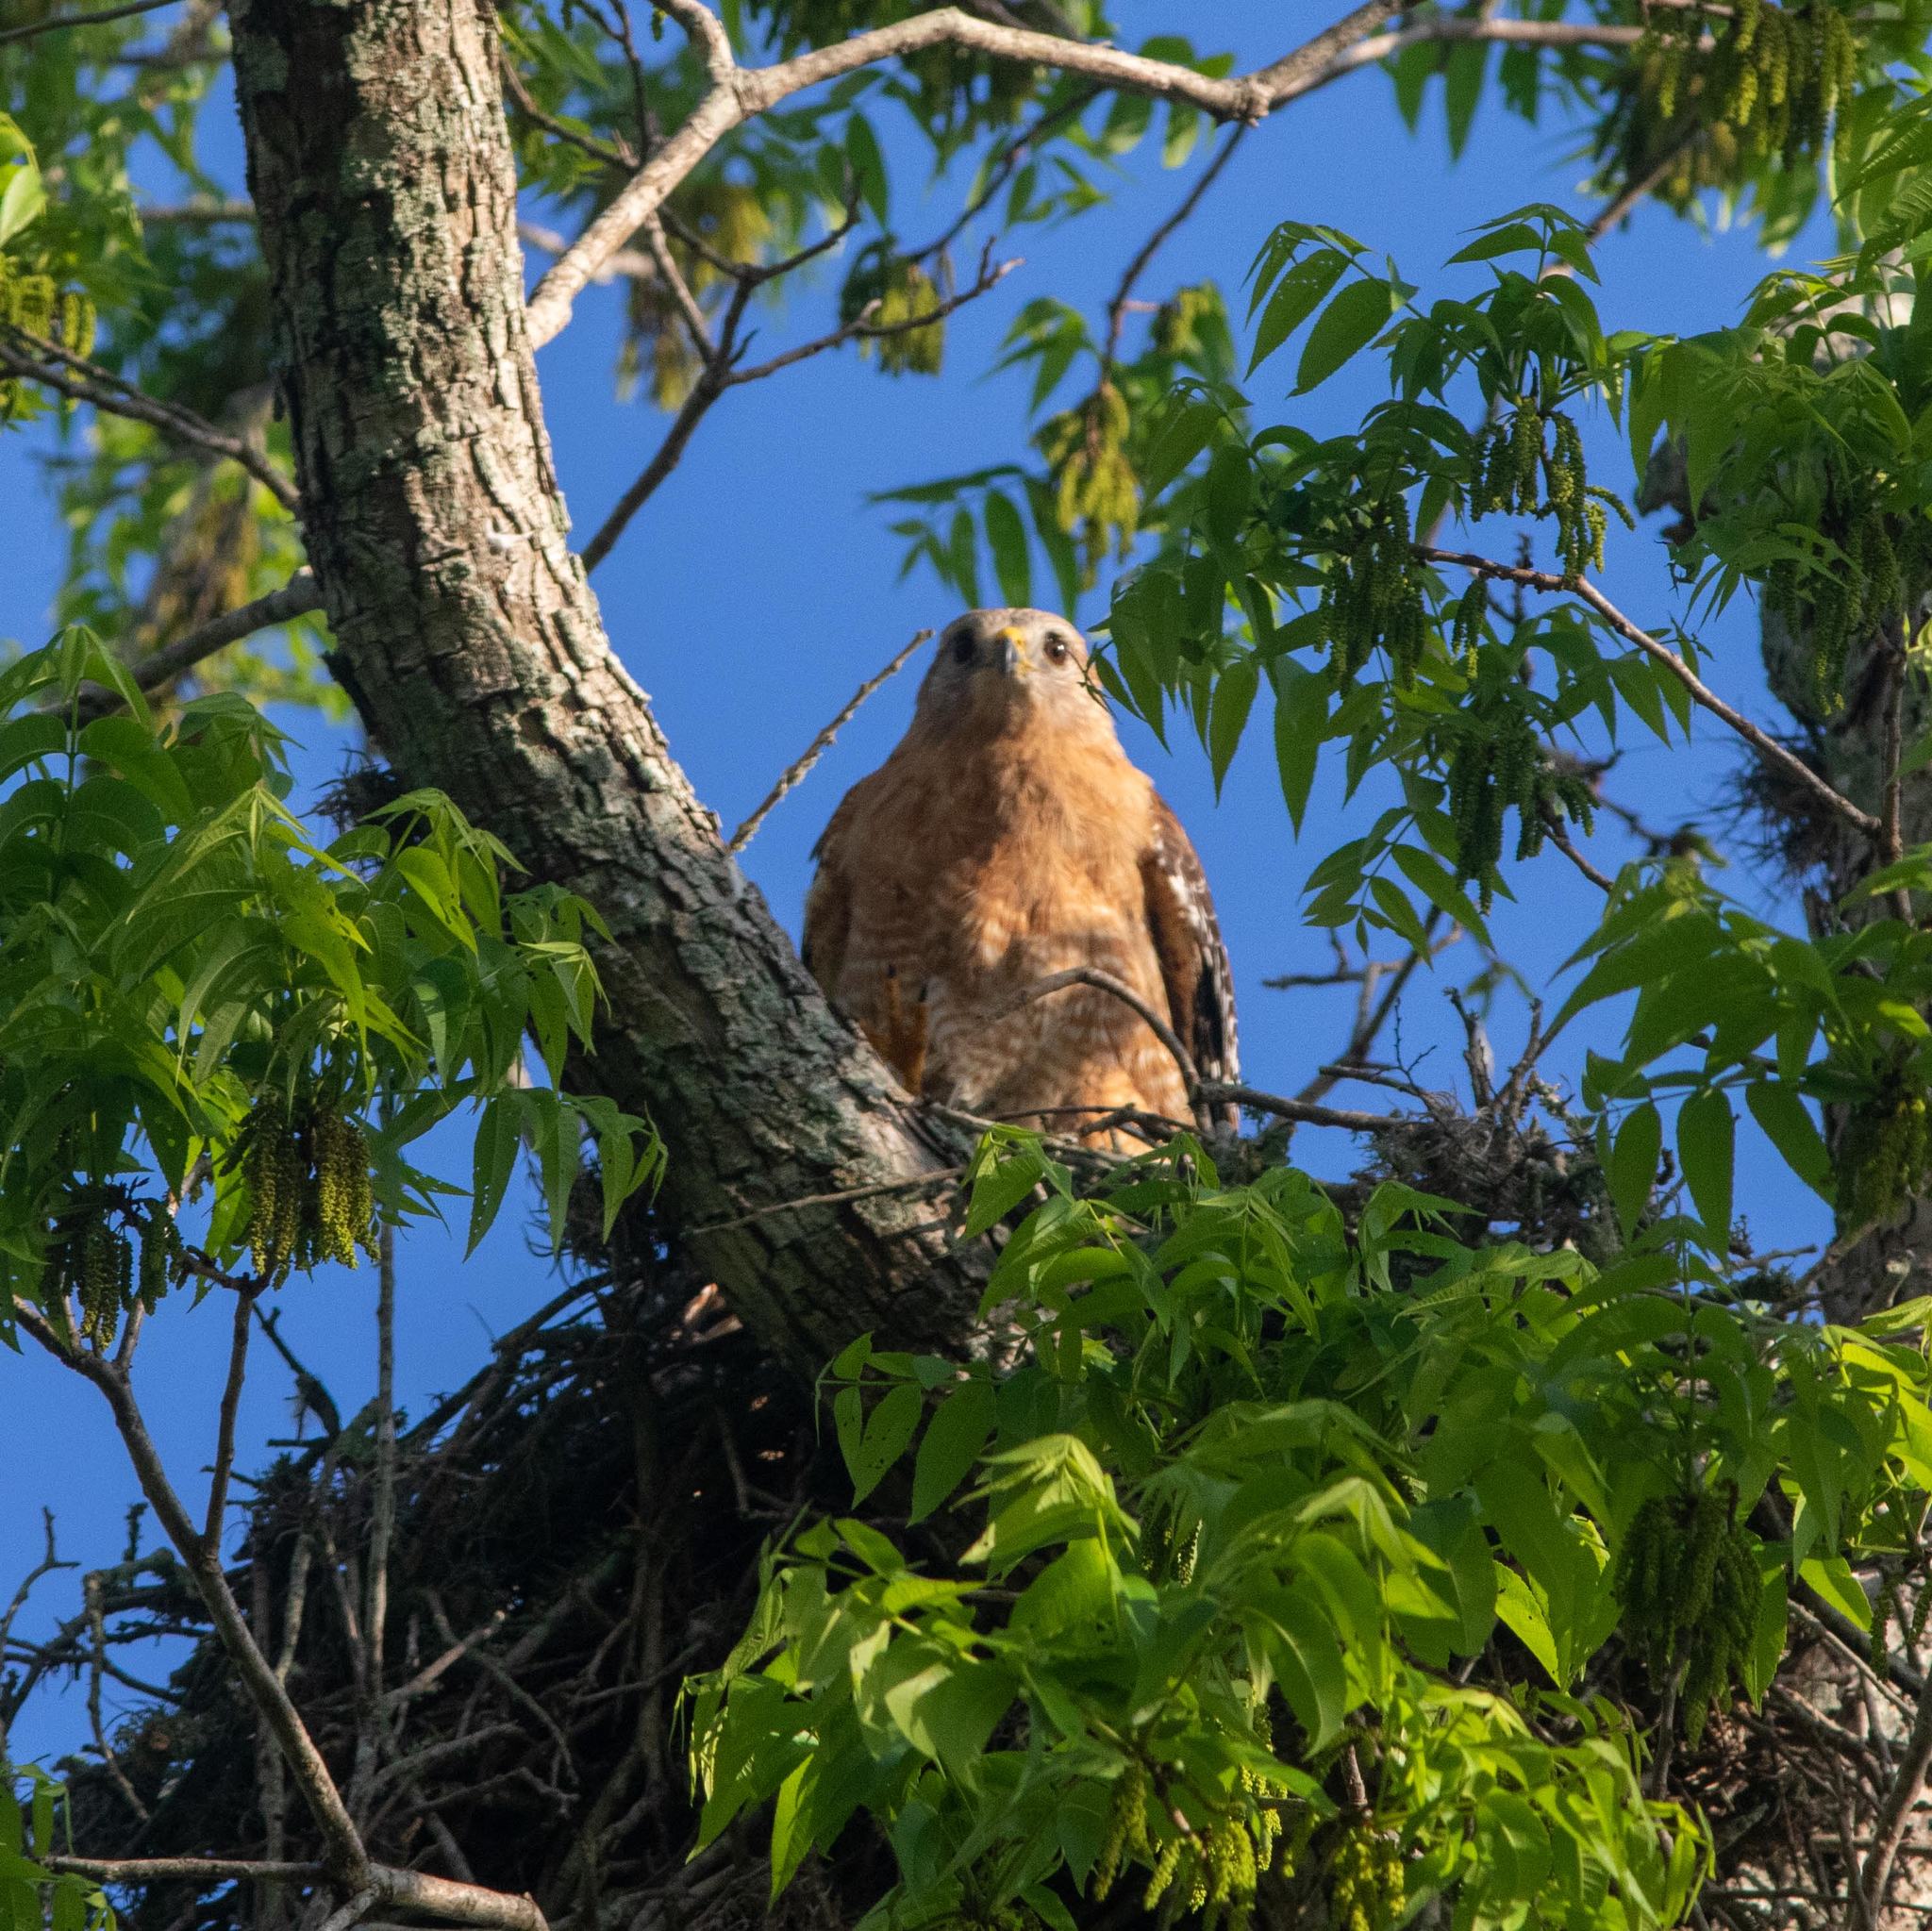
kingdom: Animalia
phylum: Chordata
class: Aves
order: Accipitriformes
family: Accipitridae
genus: Buteo
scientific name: Buteo lineatus
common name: Red-shouldered hawk
